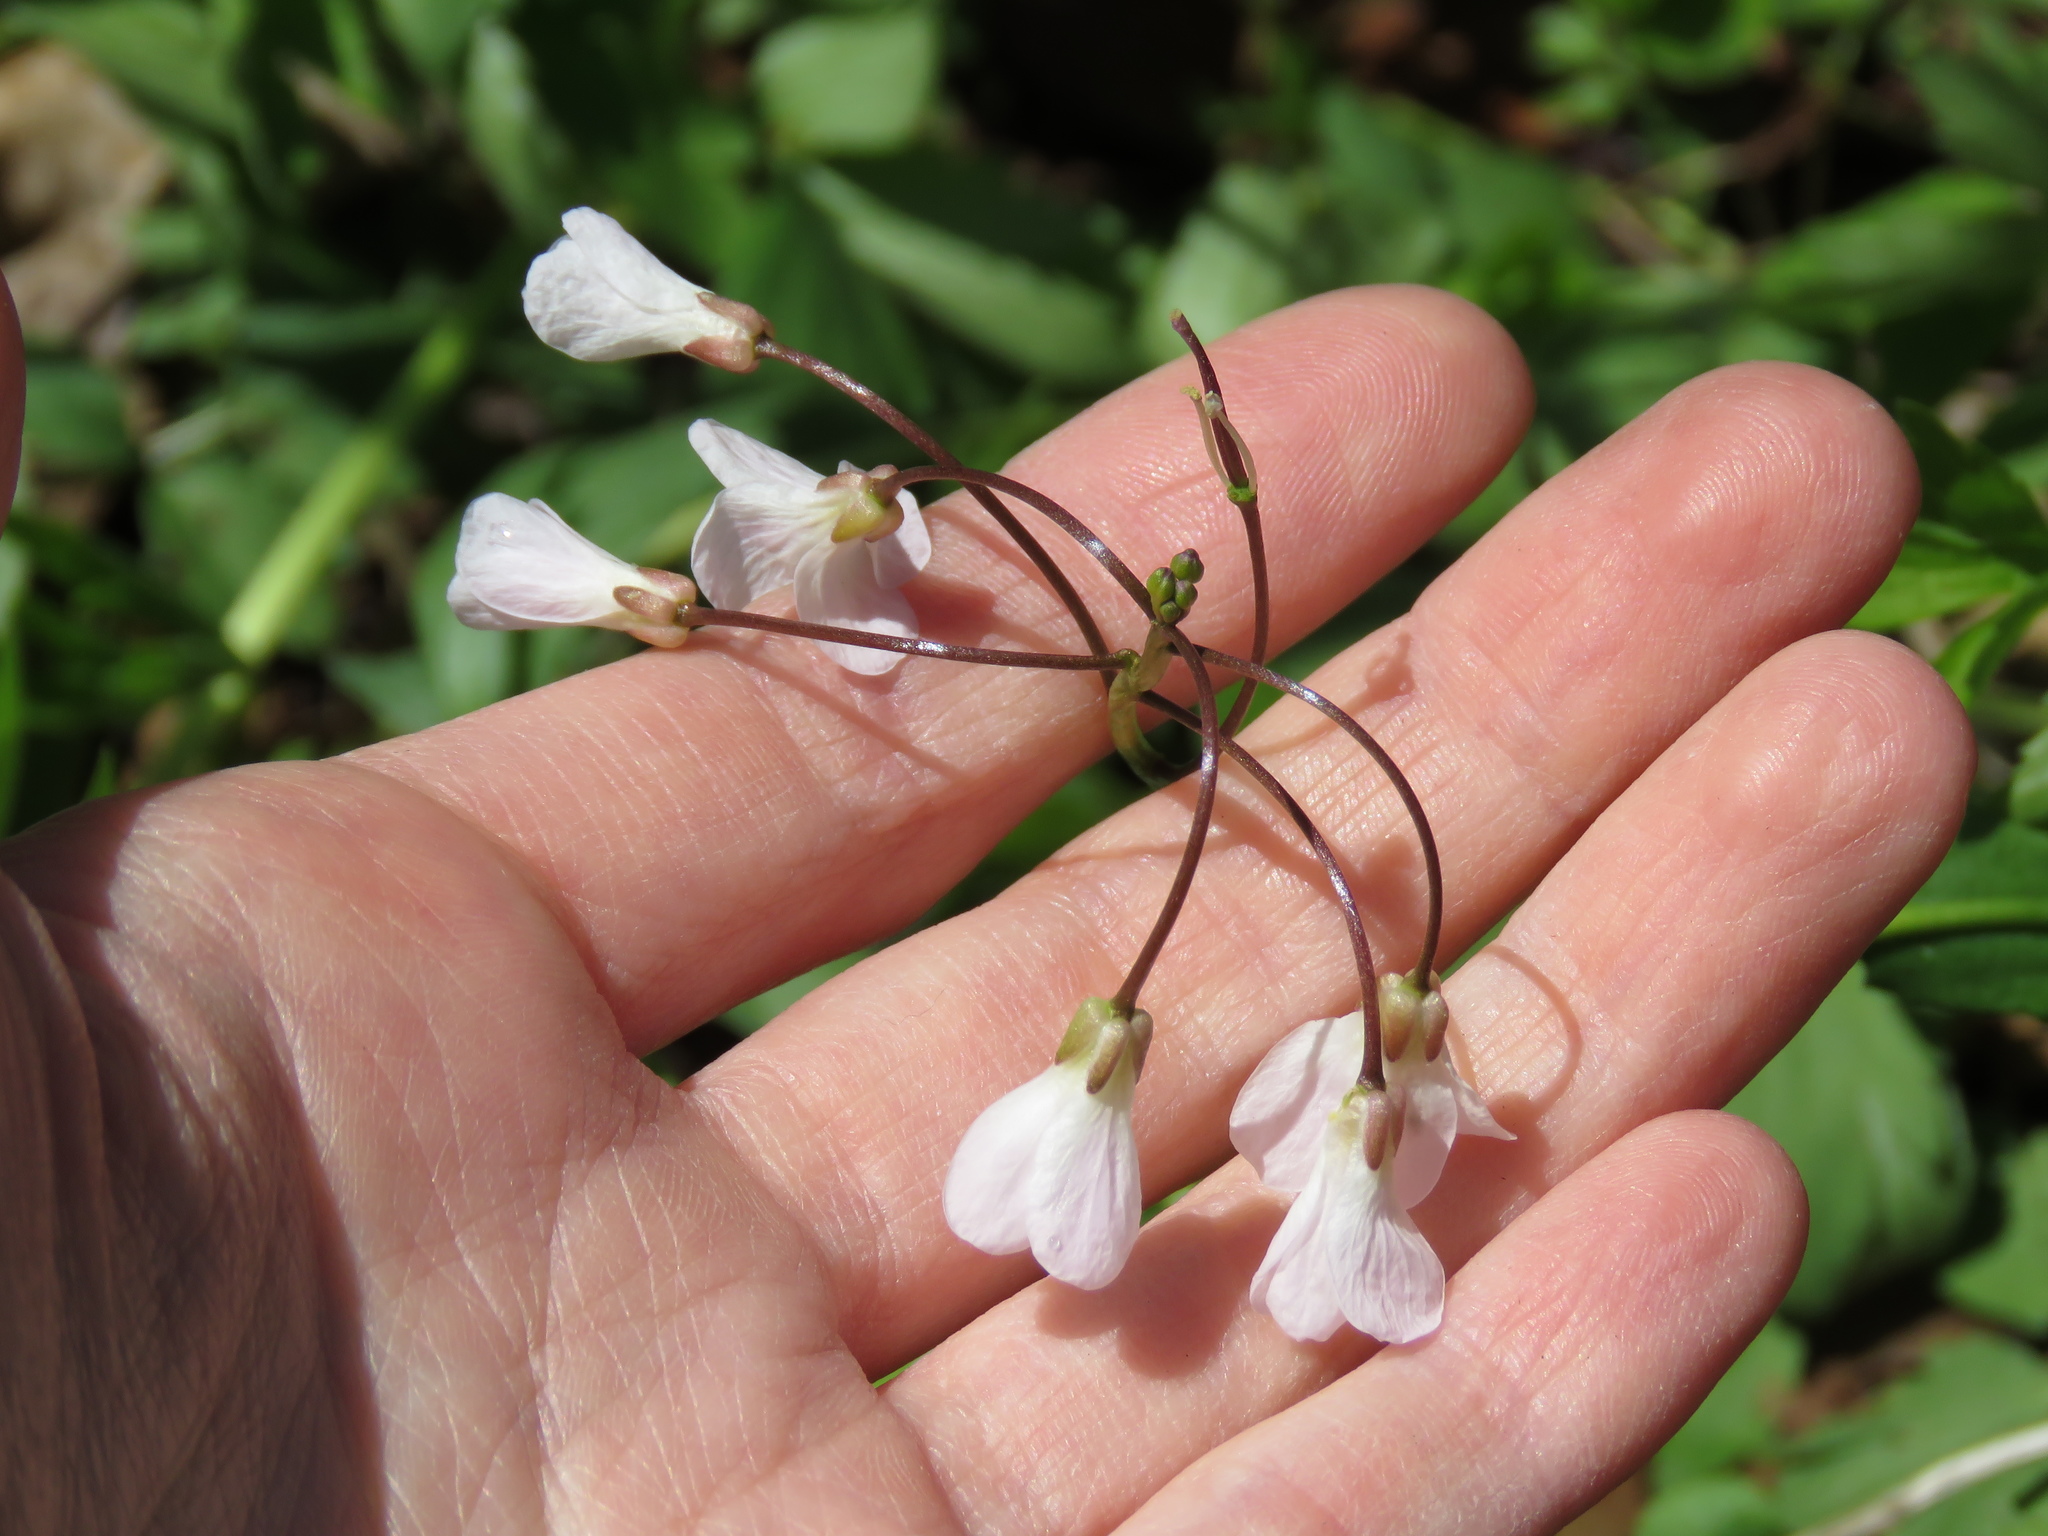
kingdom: Plantae
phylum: Tracheophyta
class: Magnoliopsida
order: Brassicales
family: Brassicaceae
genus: Cardamine
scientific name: Cardamine bulbosa
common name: Spring cress
